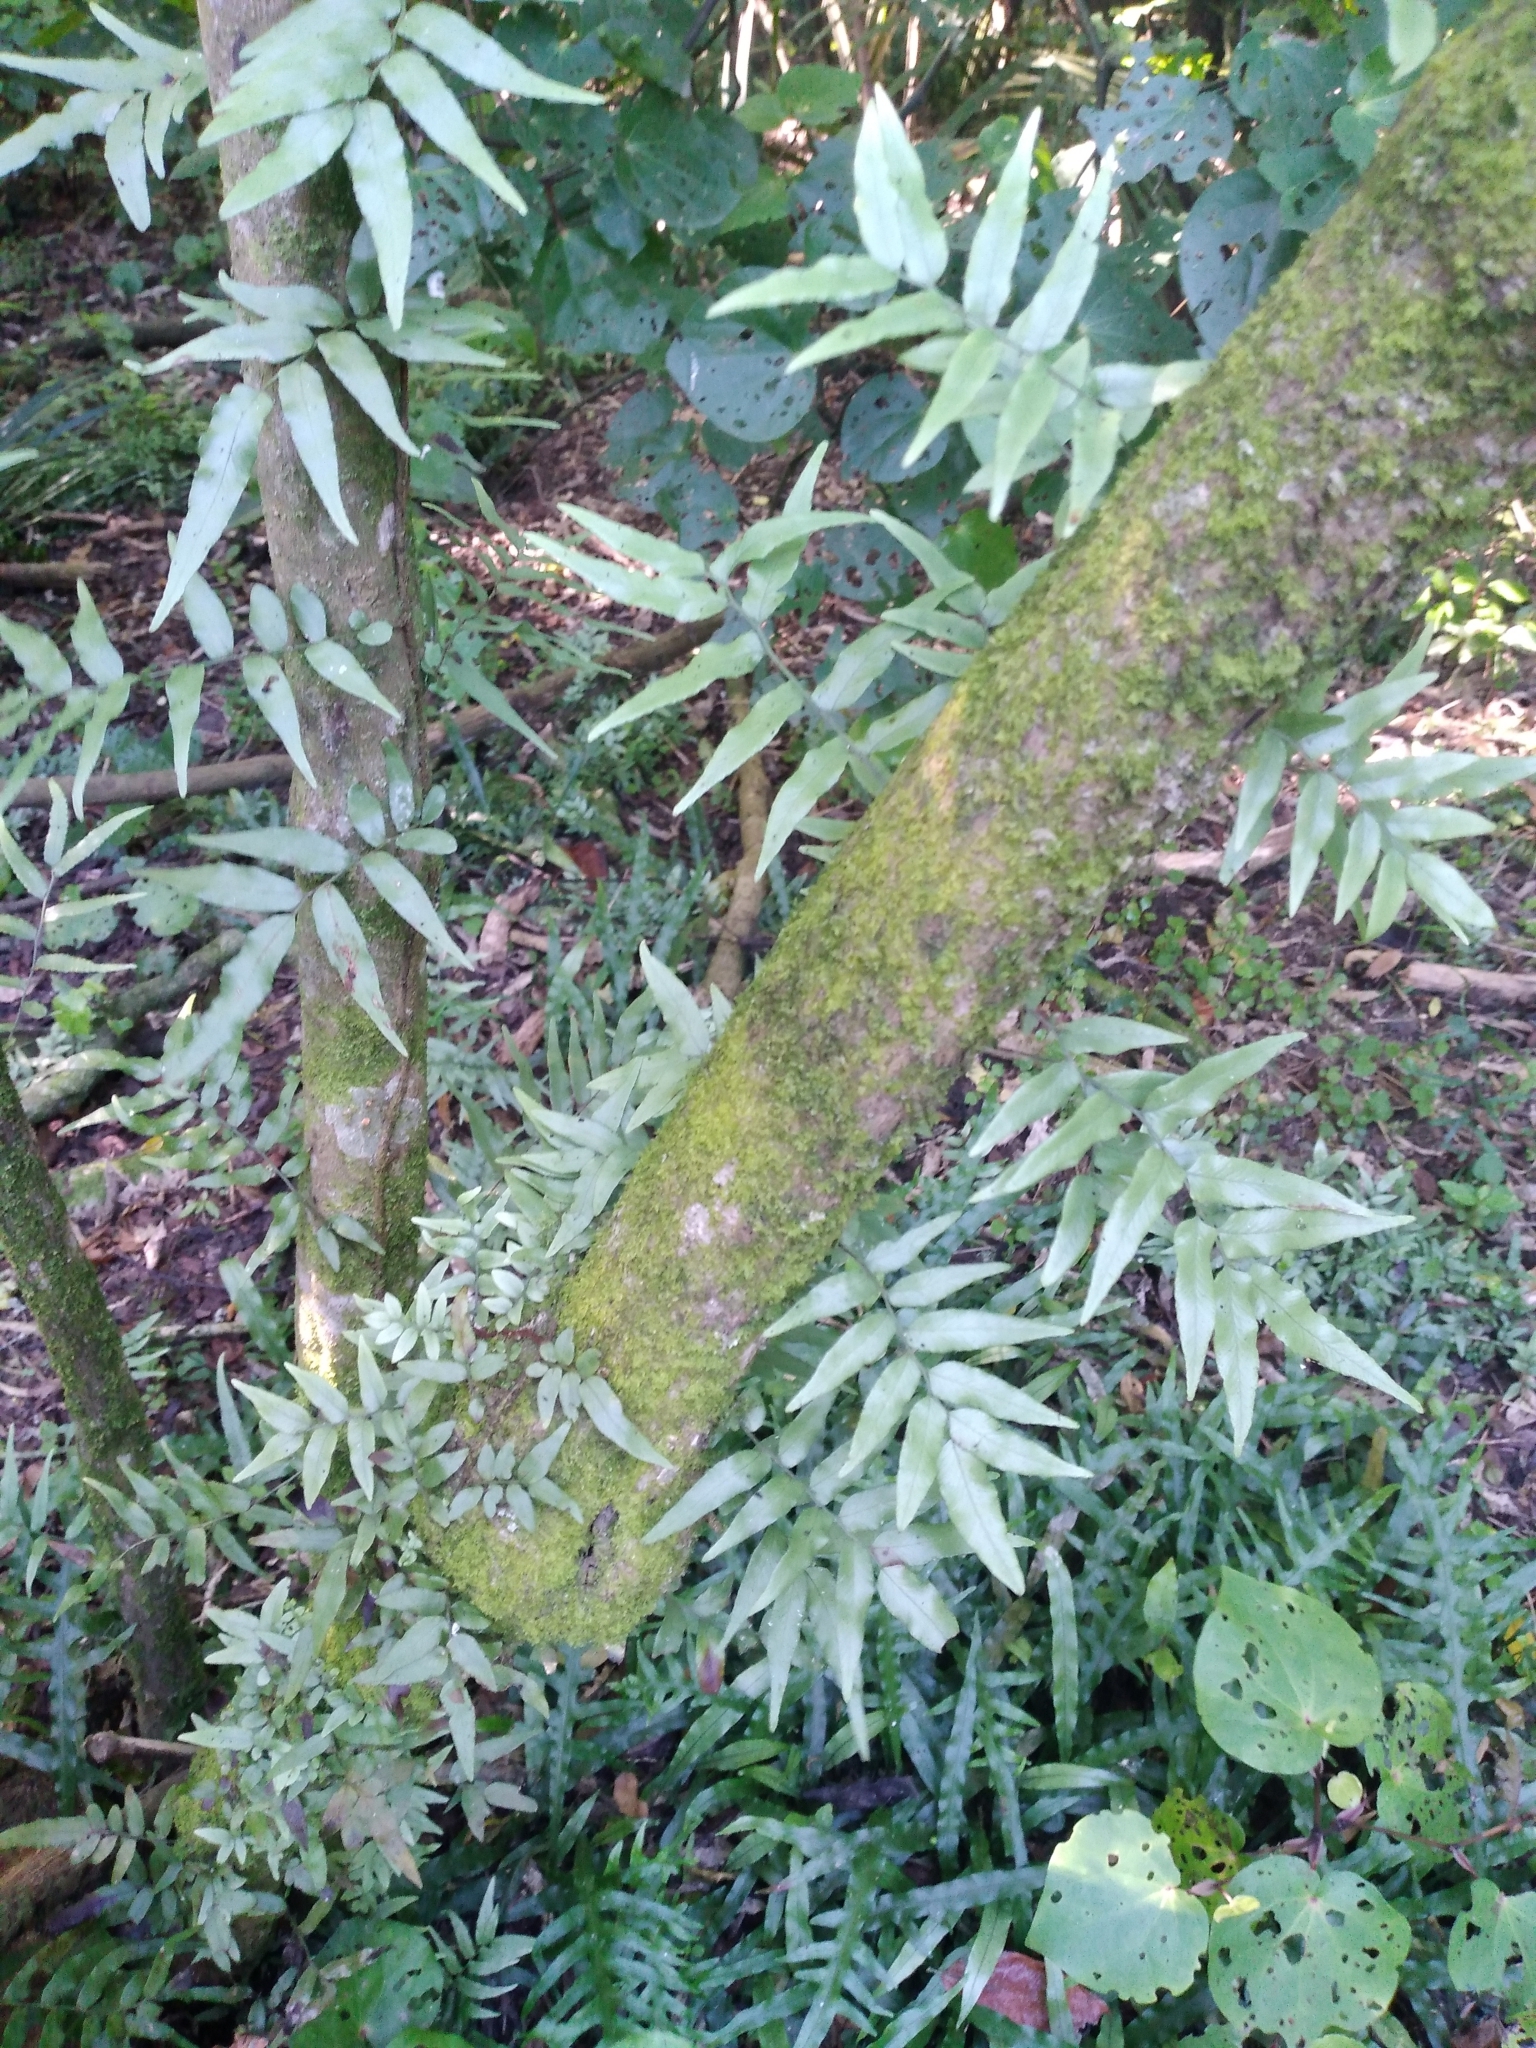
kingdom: Plantae
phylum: Tracheophyta
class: Polypodiopsida
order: Polypodiales
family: Tectariaceae
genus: Arthropteris
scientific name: Arthropteris tenella
